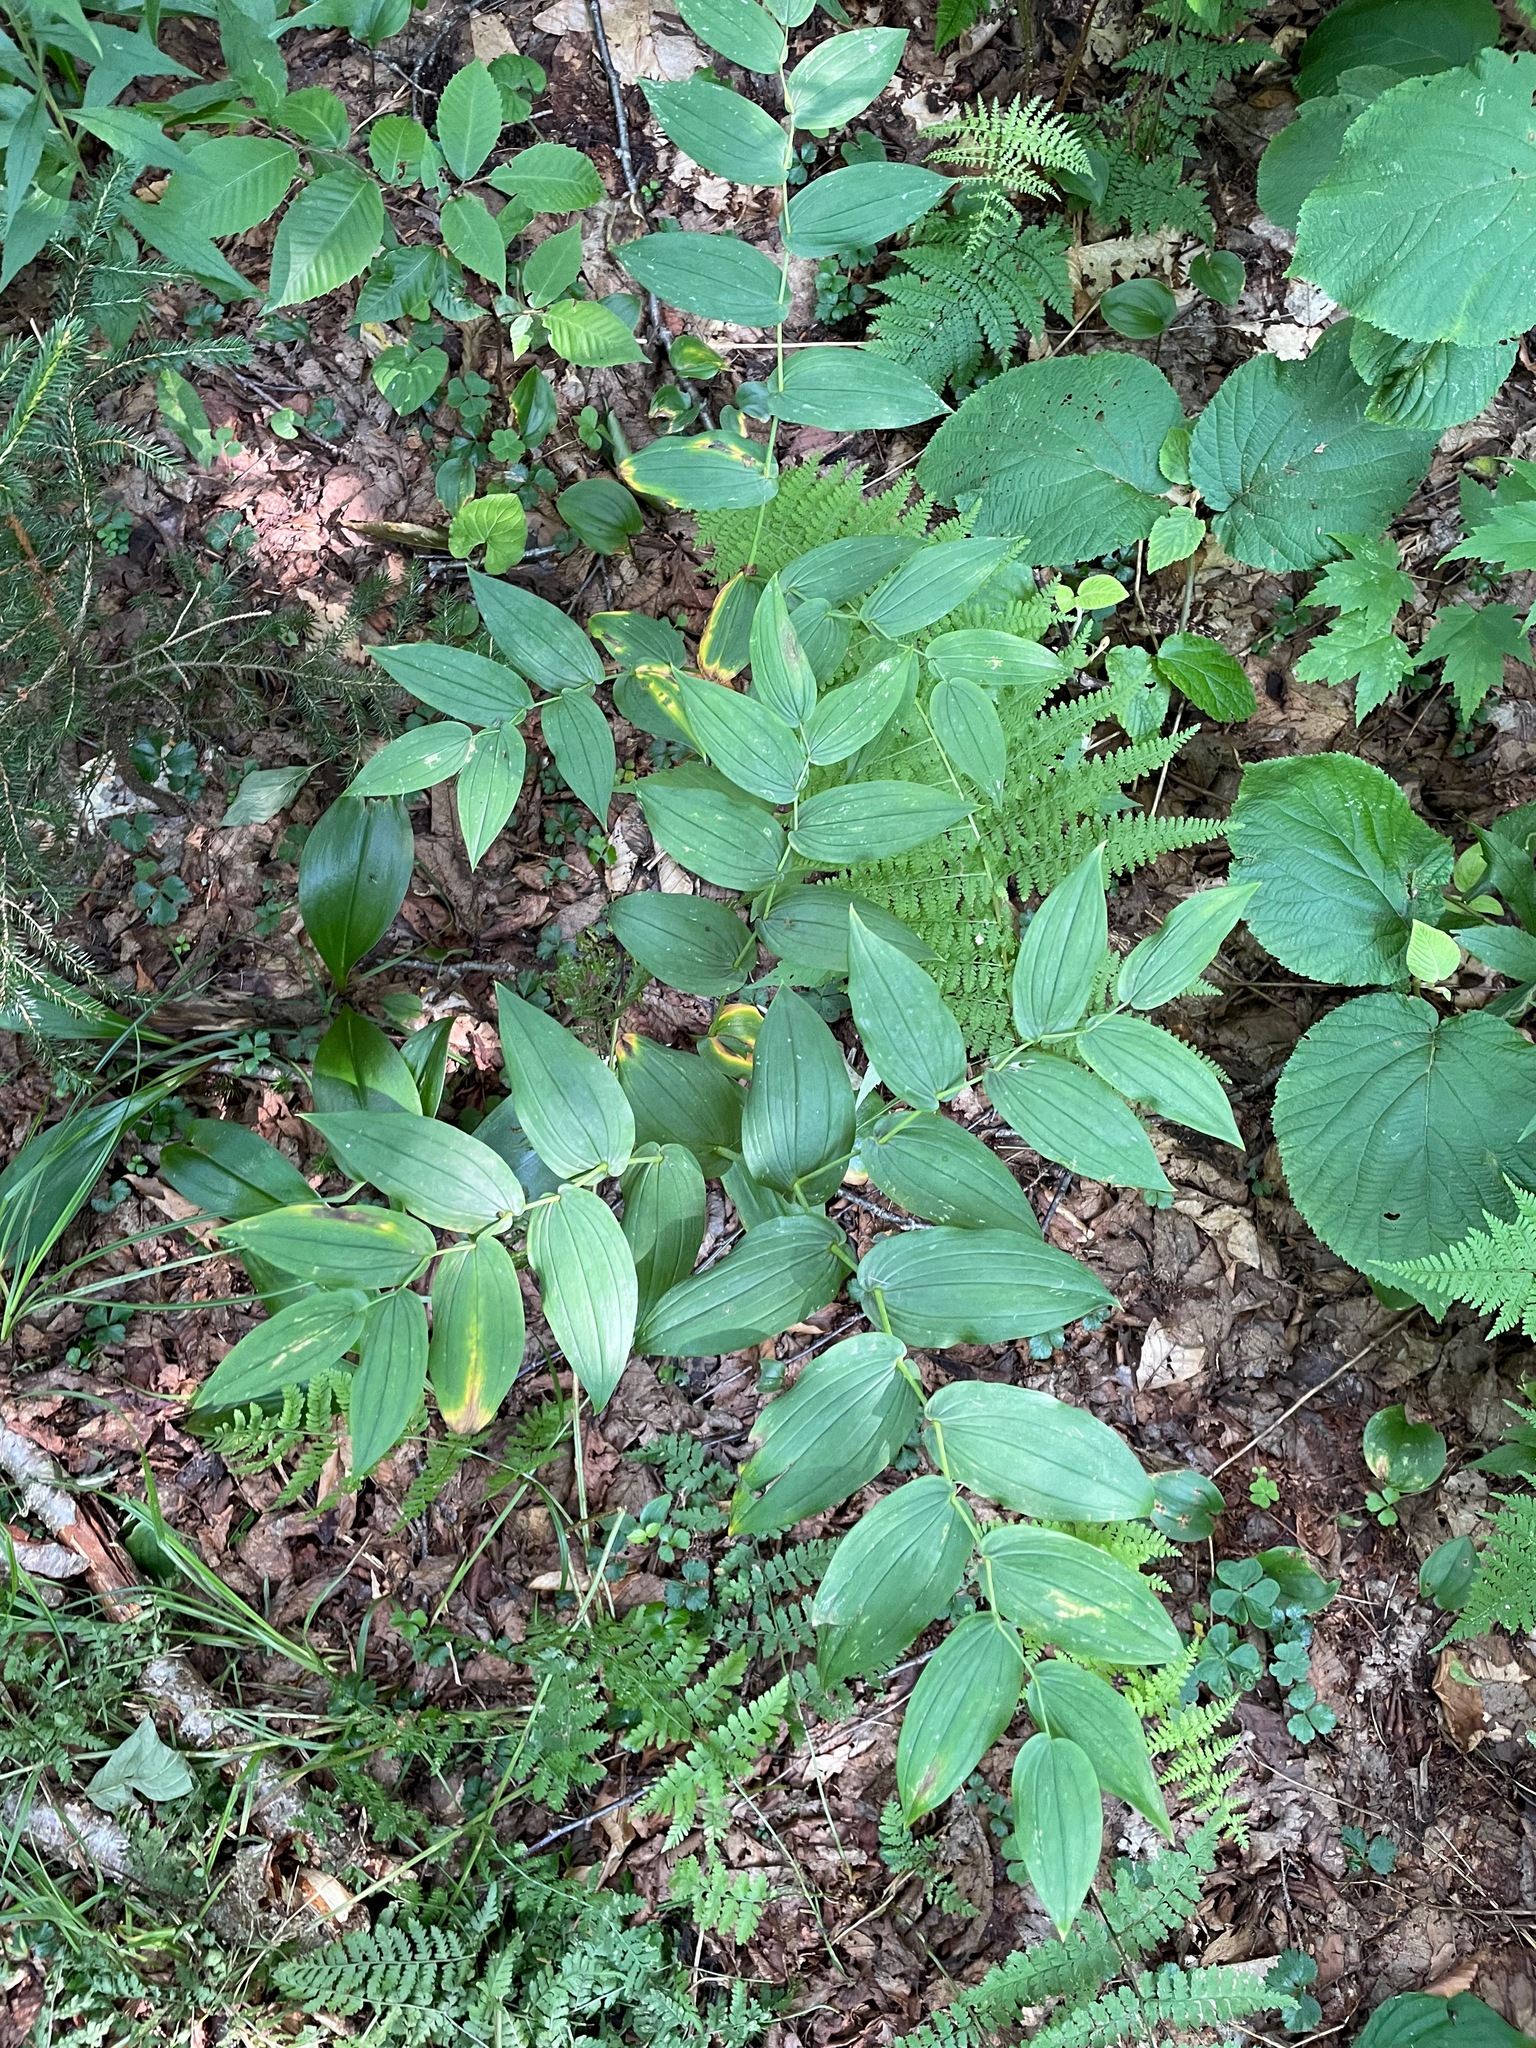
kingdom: Plantae
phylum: Tracheophyta
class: Liliopsida
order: Liliales
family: Liliaceae
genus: Streptopus
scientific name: Streptopus amplexifolius
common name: Clasp twisted stalk
